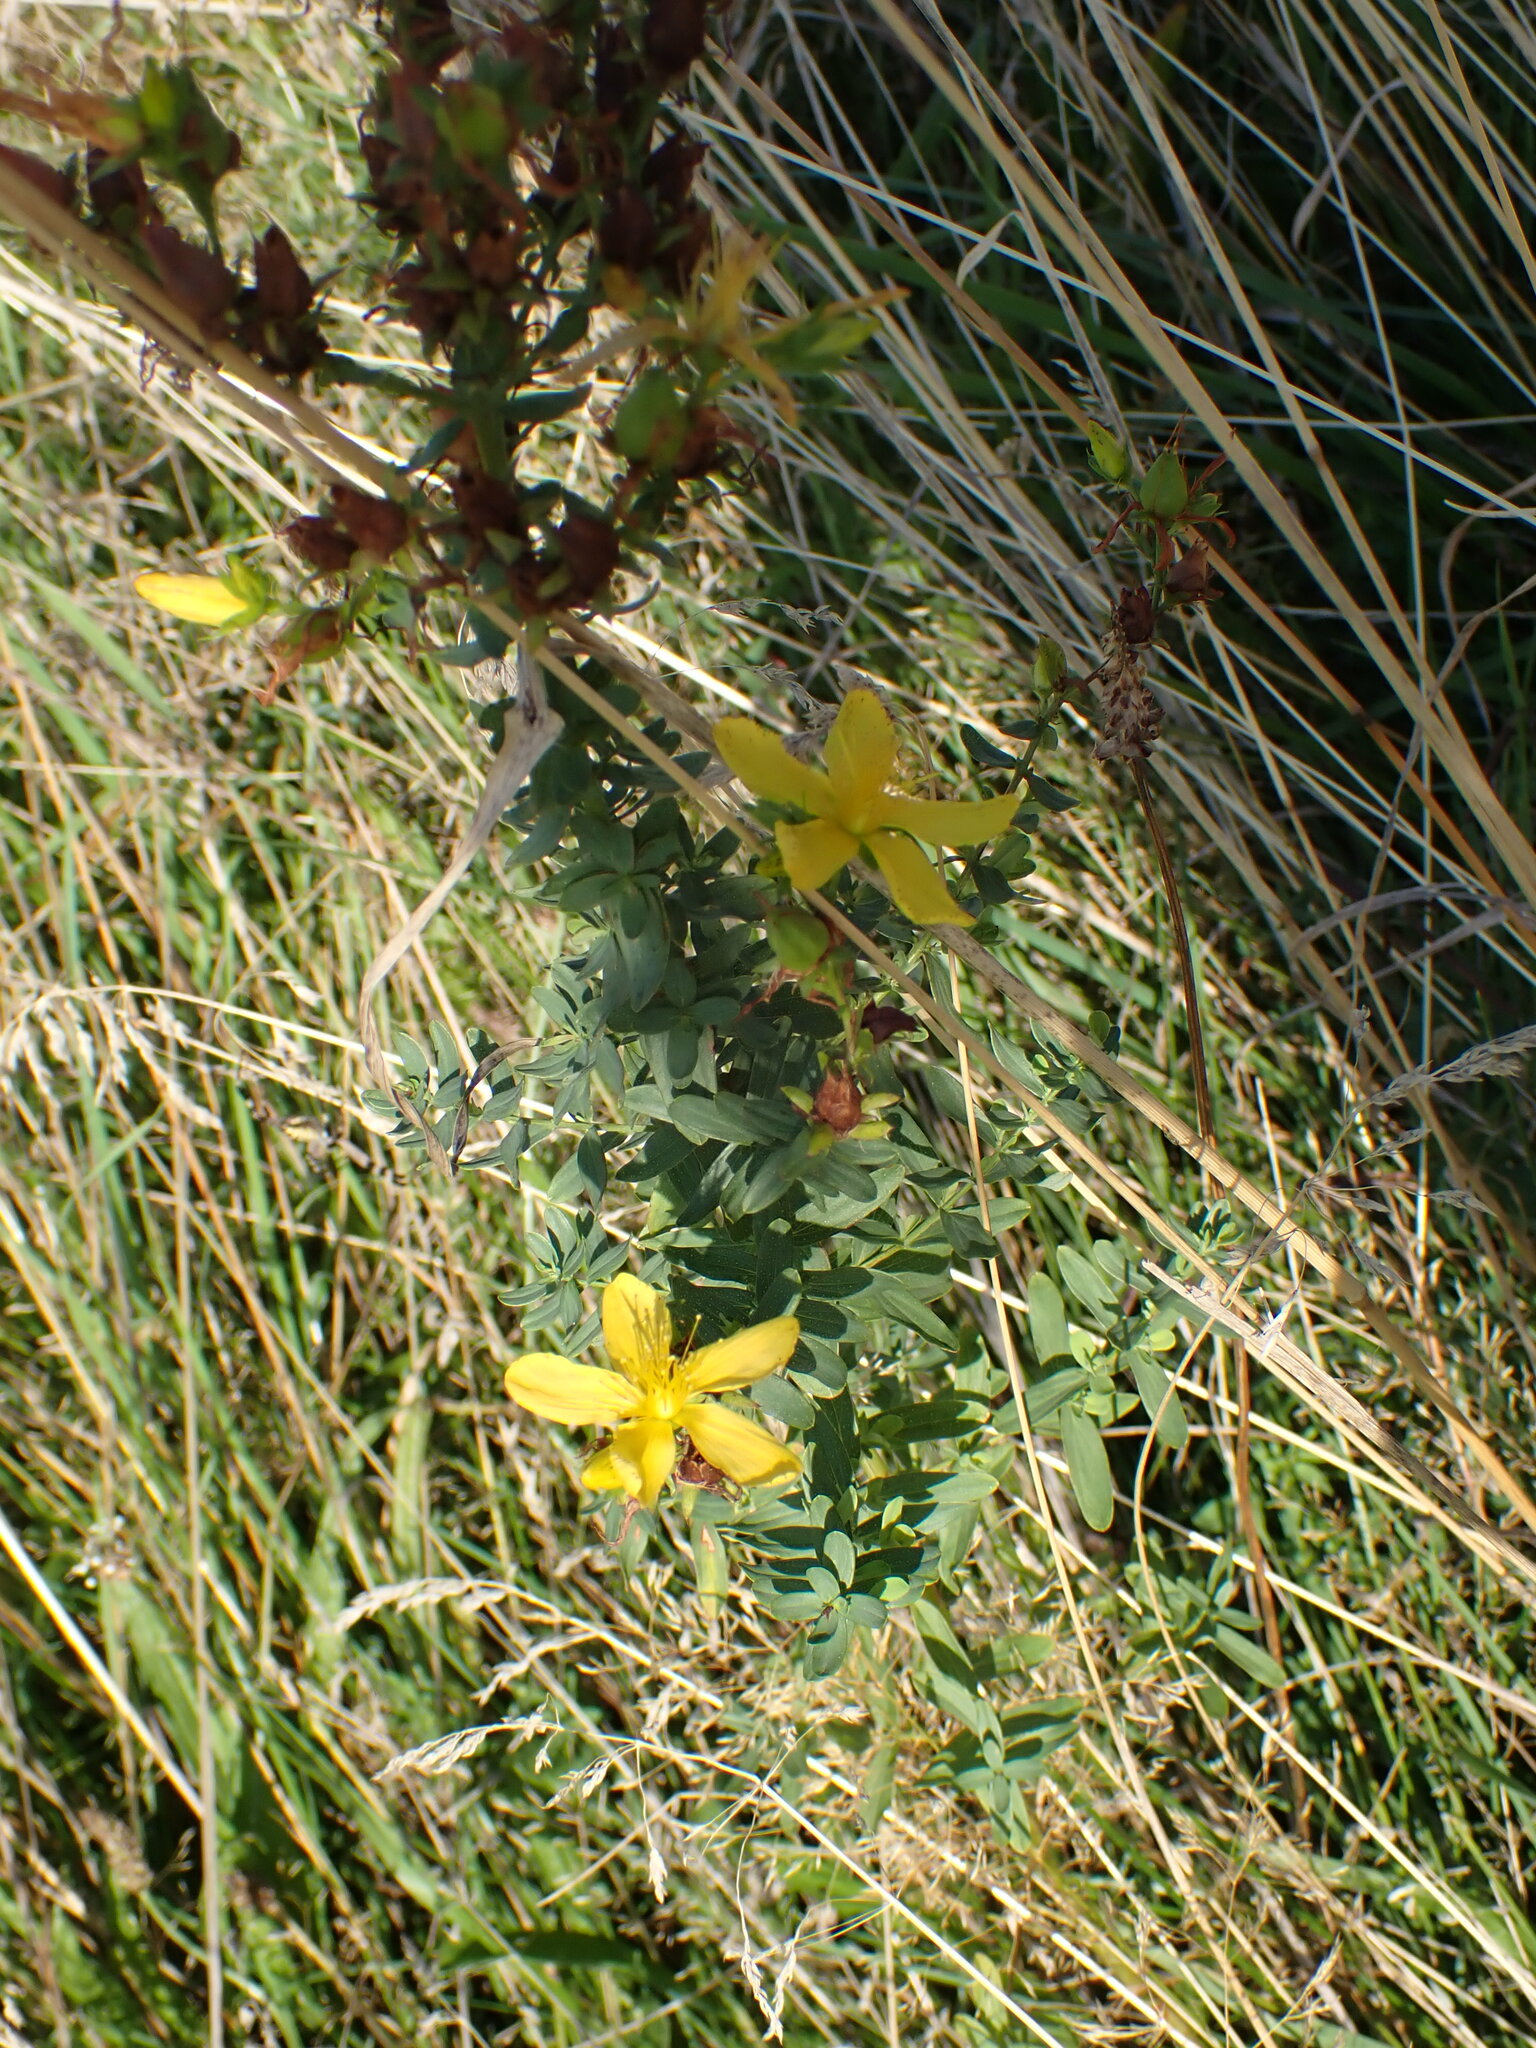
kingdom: Plantae
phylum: Tracheophyta
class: Magnoliopsida
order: Malpighiales
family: Hypericaceae
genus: Hypericum
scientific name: Hypericum perforatum
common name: Common st. johnswort
